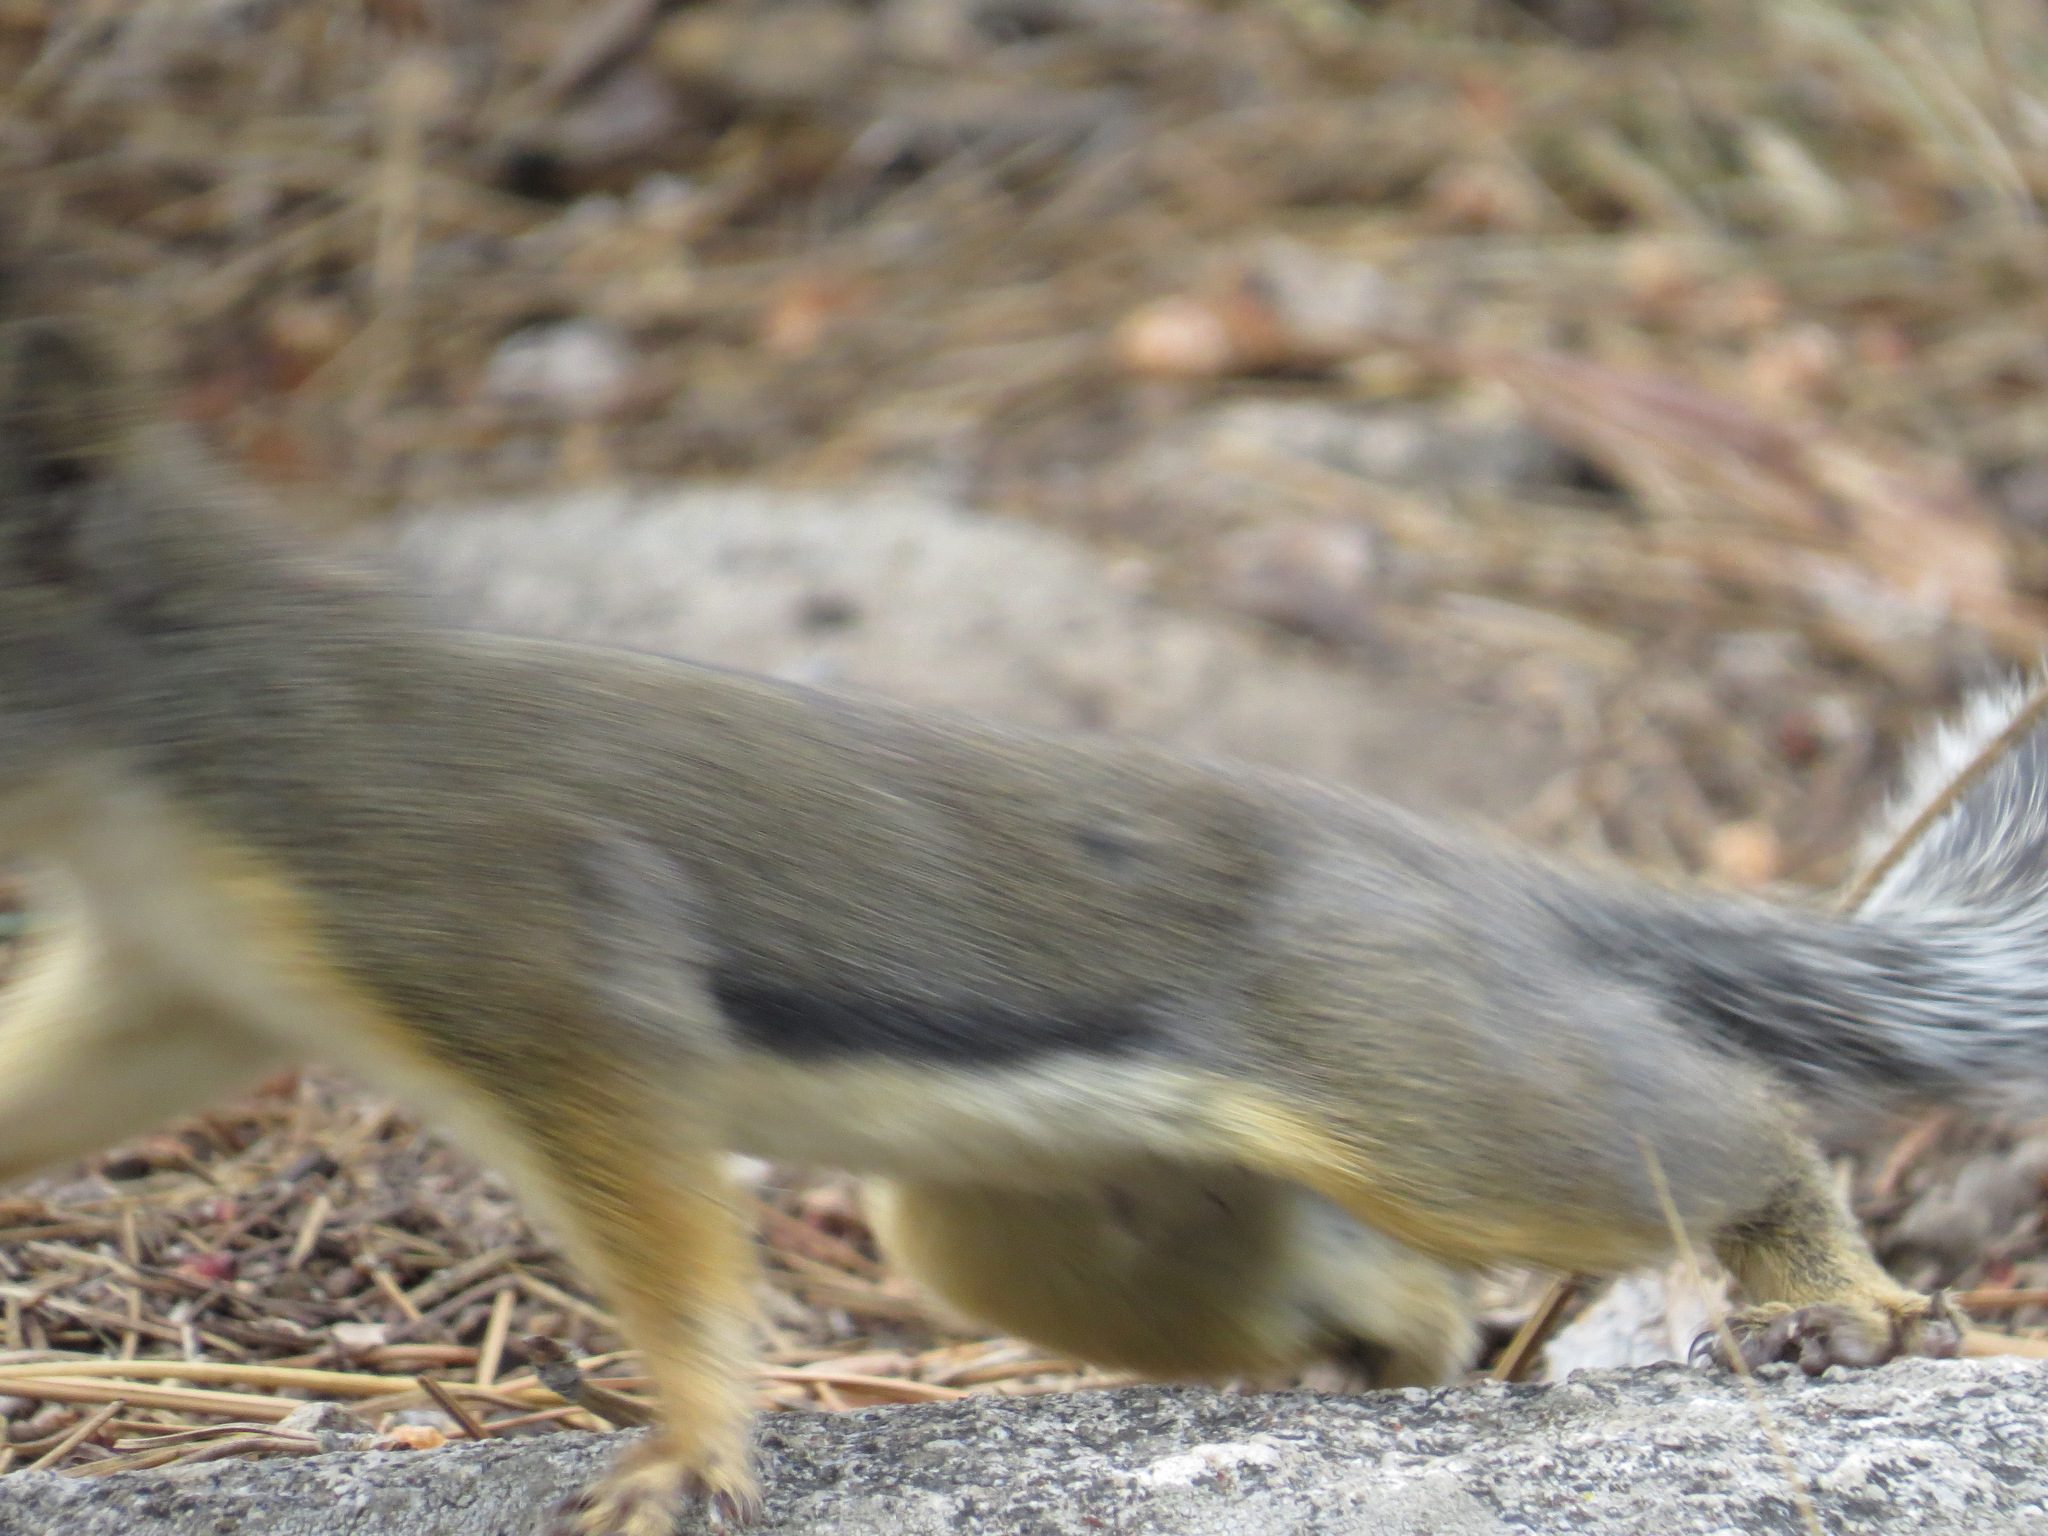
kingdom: Animalia
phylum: Chordata
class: Mammalia
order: Rodentia
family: Sciuridae
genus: Tamiasciurus
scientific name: Tamiasciurus douglasii
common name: Douglas's squirrel
